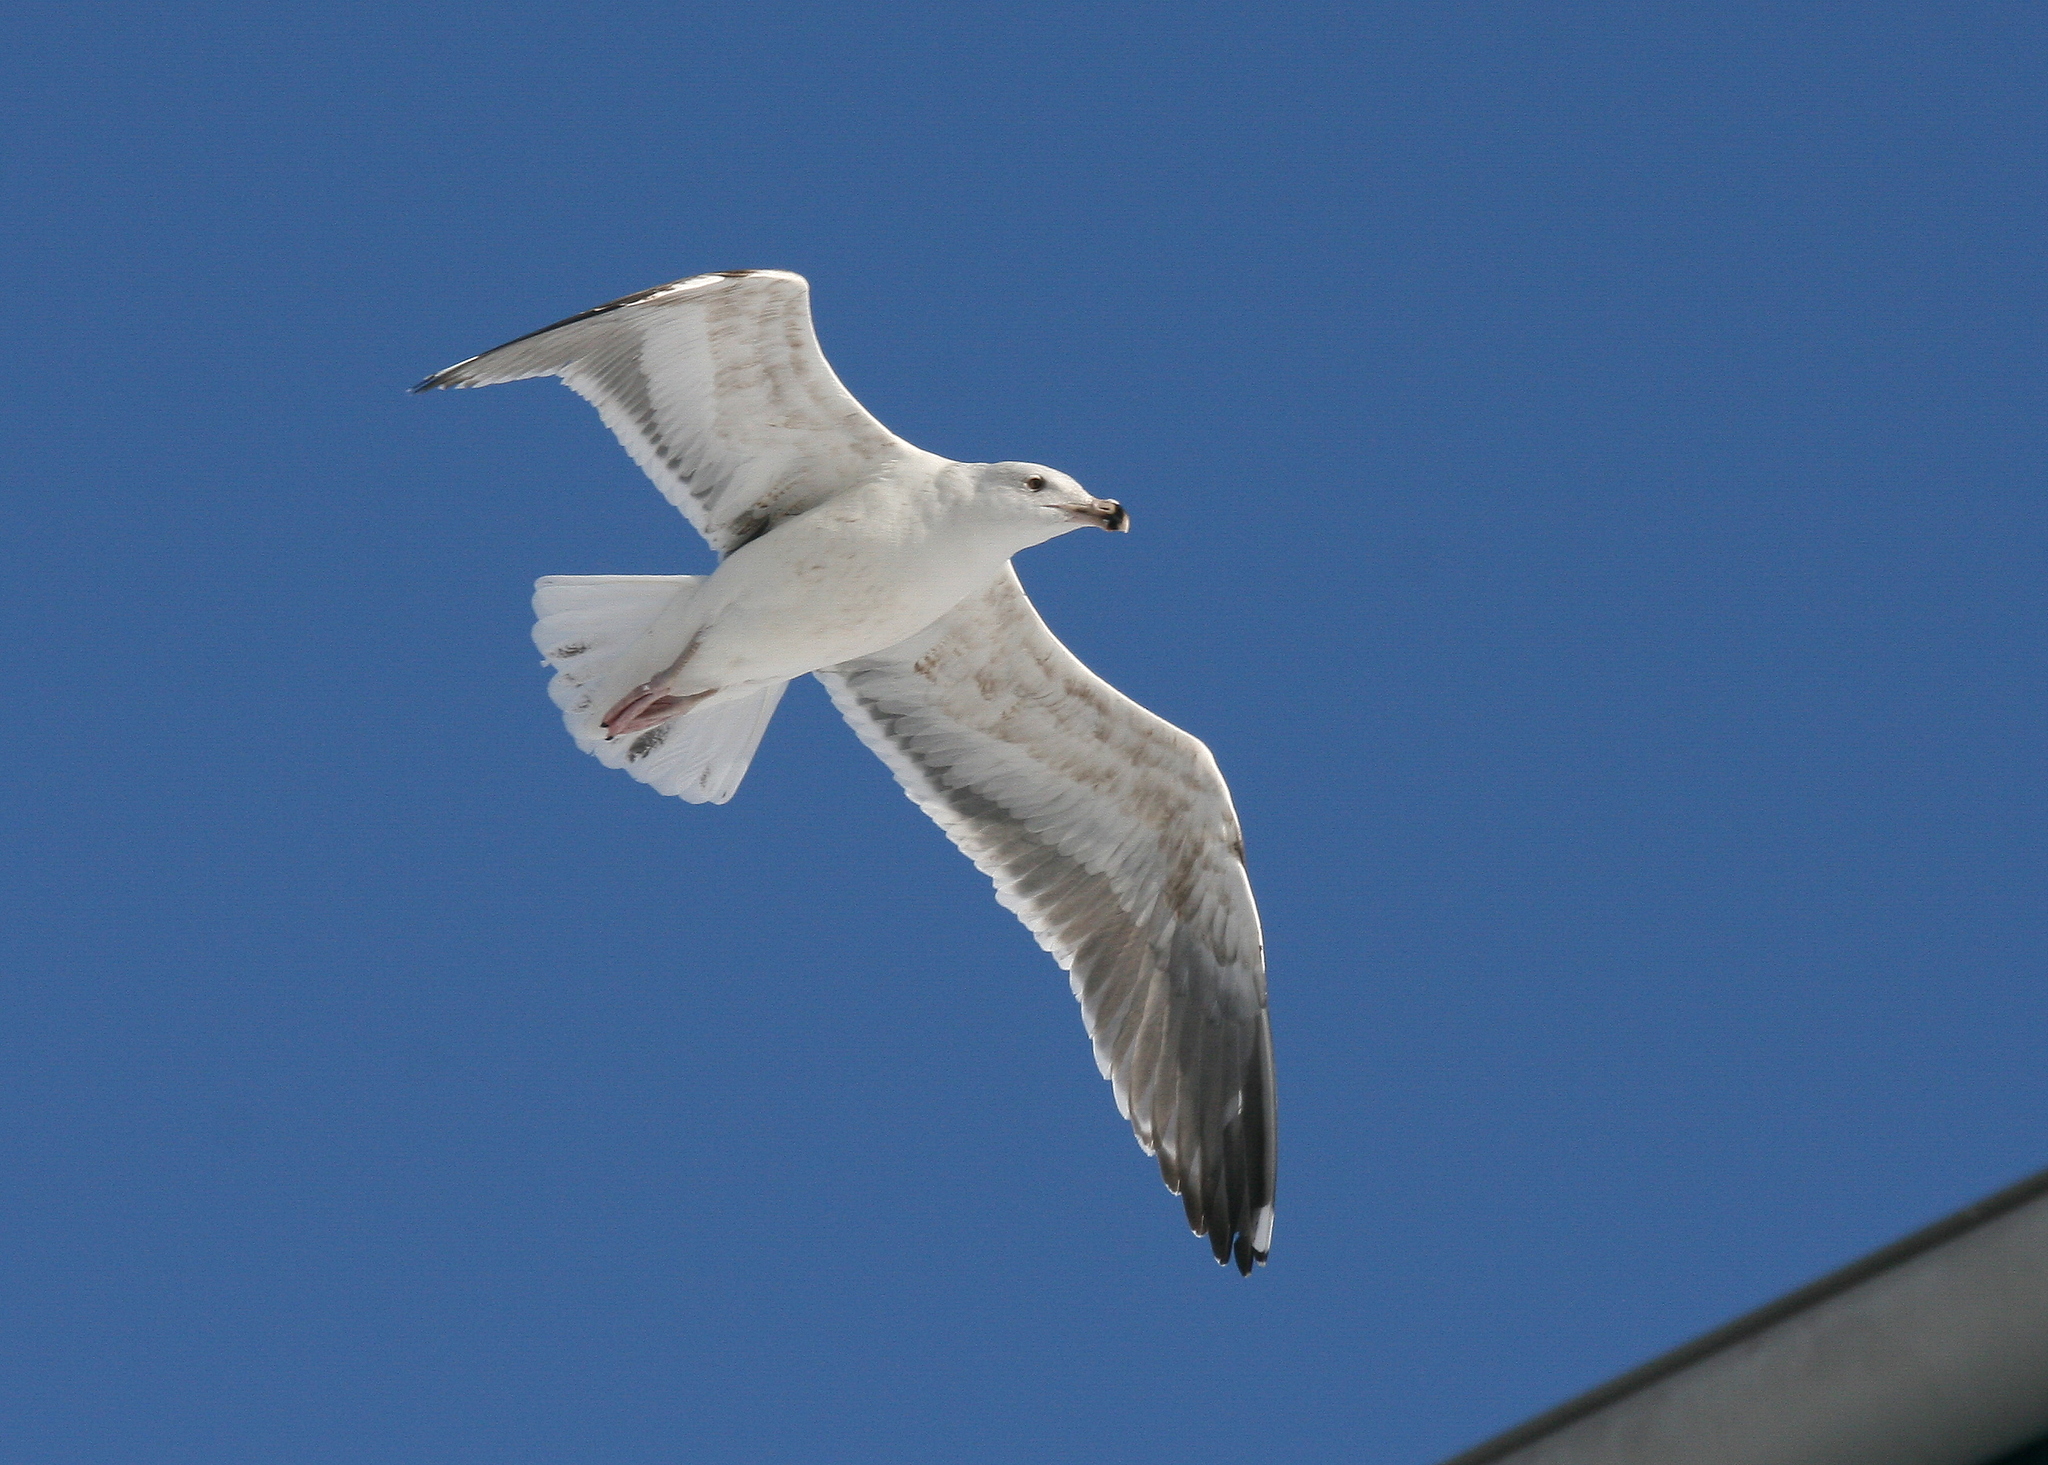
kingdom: Animalia
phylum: Chordata
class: Aves
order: Charadriiformes
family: Laridae
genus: Larus
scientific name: Larus marinus
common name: Great black-backed gull
